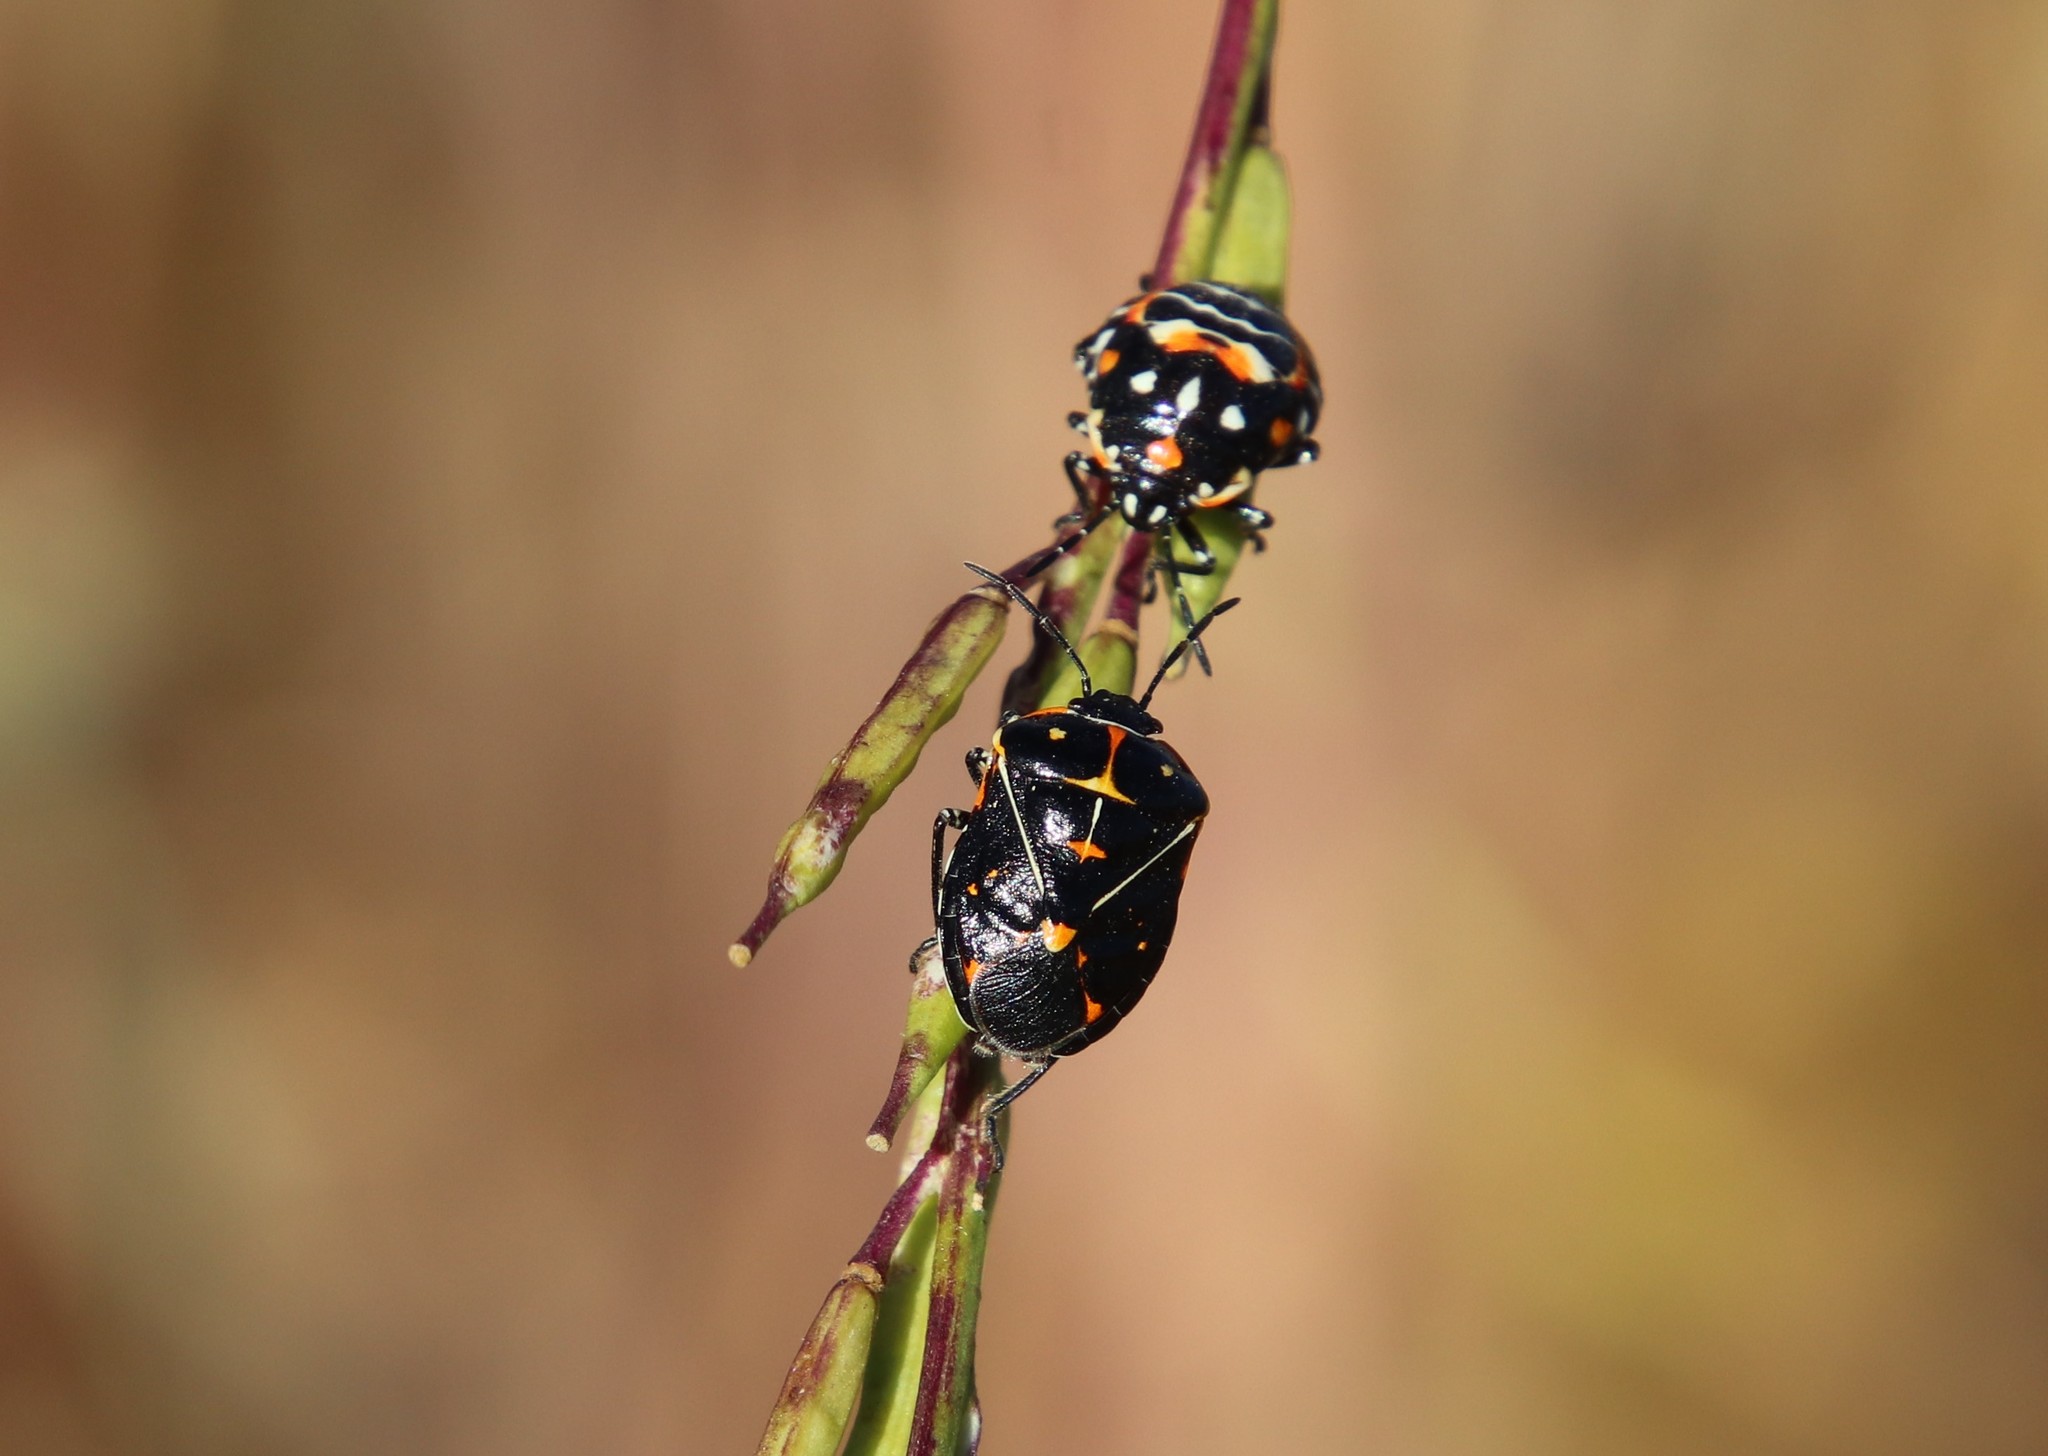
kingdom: Animalia
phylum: Arthropoda
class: Insecta
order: Hemiptera
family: Pentatomidae
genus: Murgantia
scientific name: Murgantia histrionica
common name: Harlequin bug
